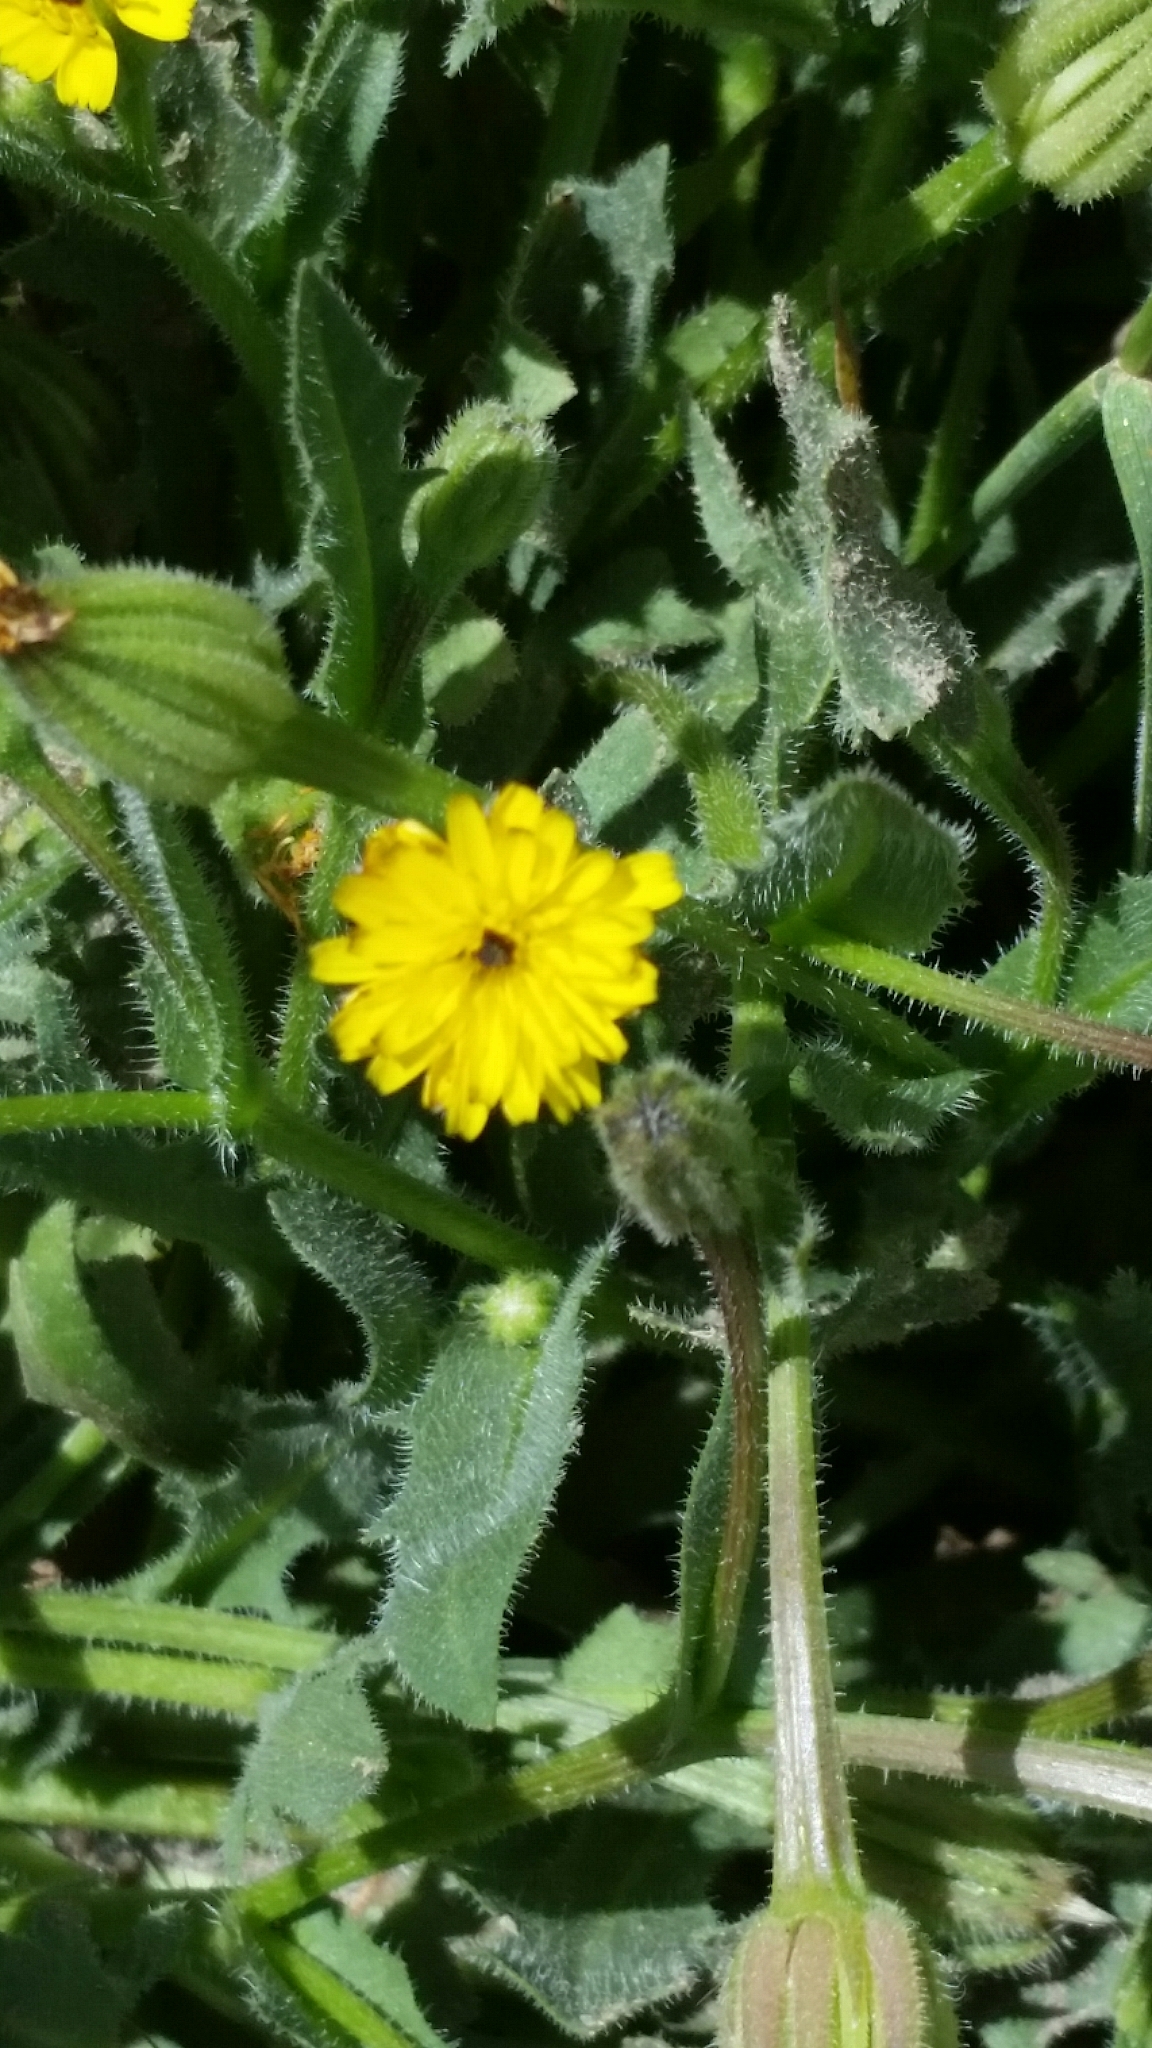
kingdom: Plantae
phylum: Tracheophyta
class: Magnoliopsida
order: Asterales
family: Asteraceae
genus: Hedypnois
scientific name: Hedypnois rhagadioloides
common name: Cretan weed
